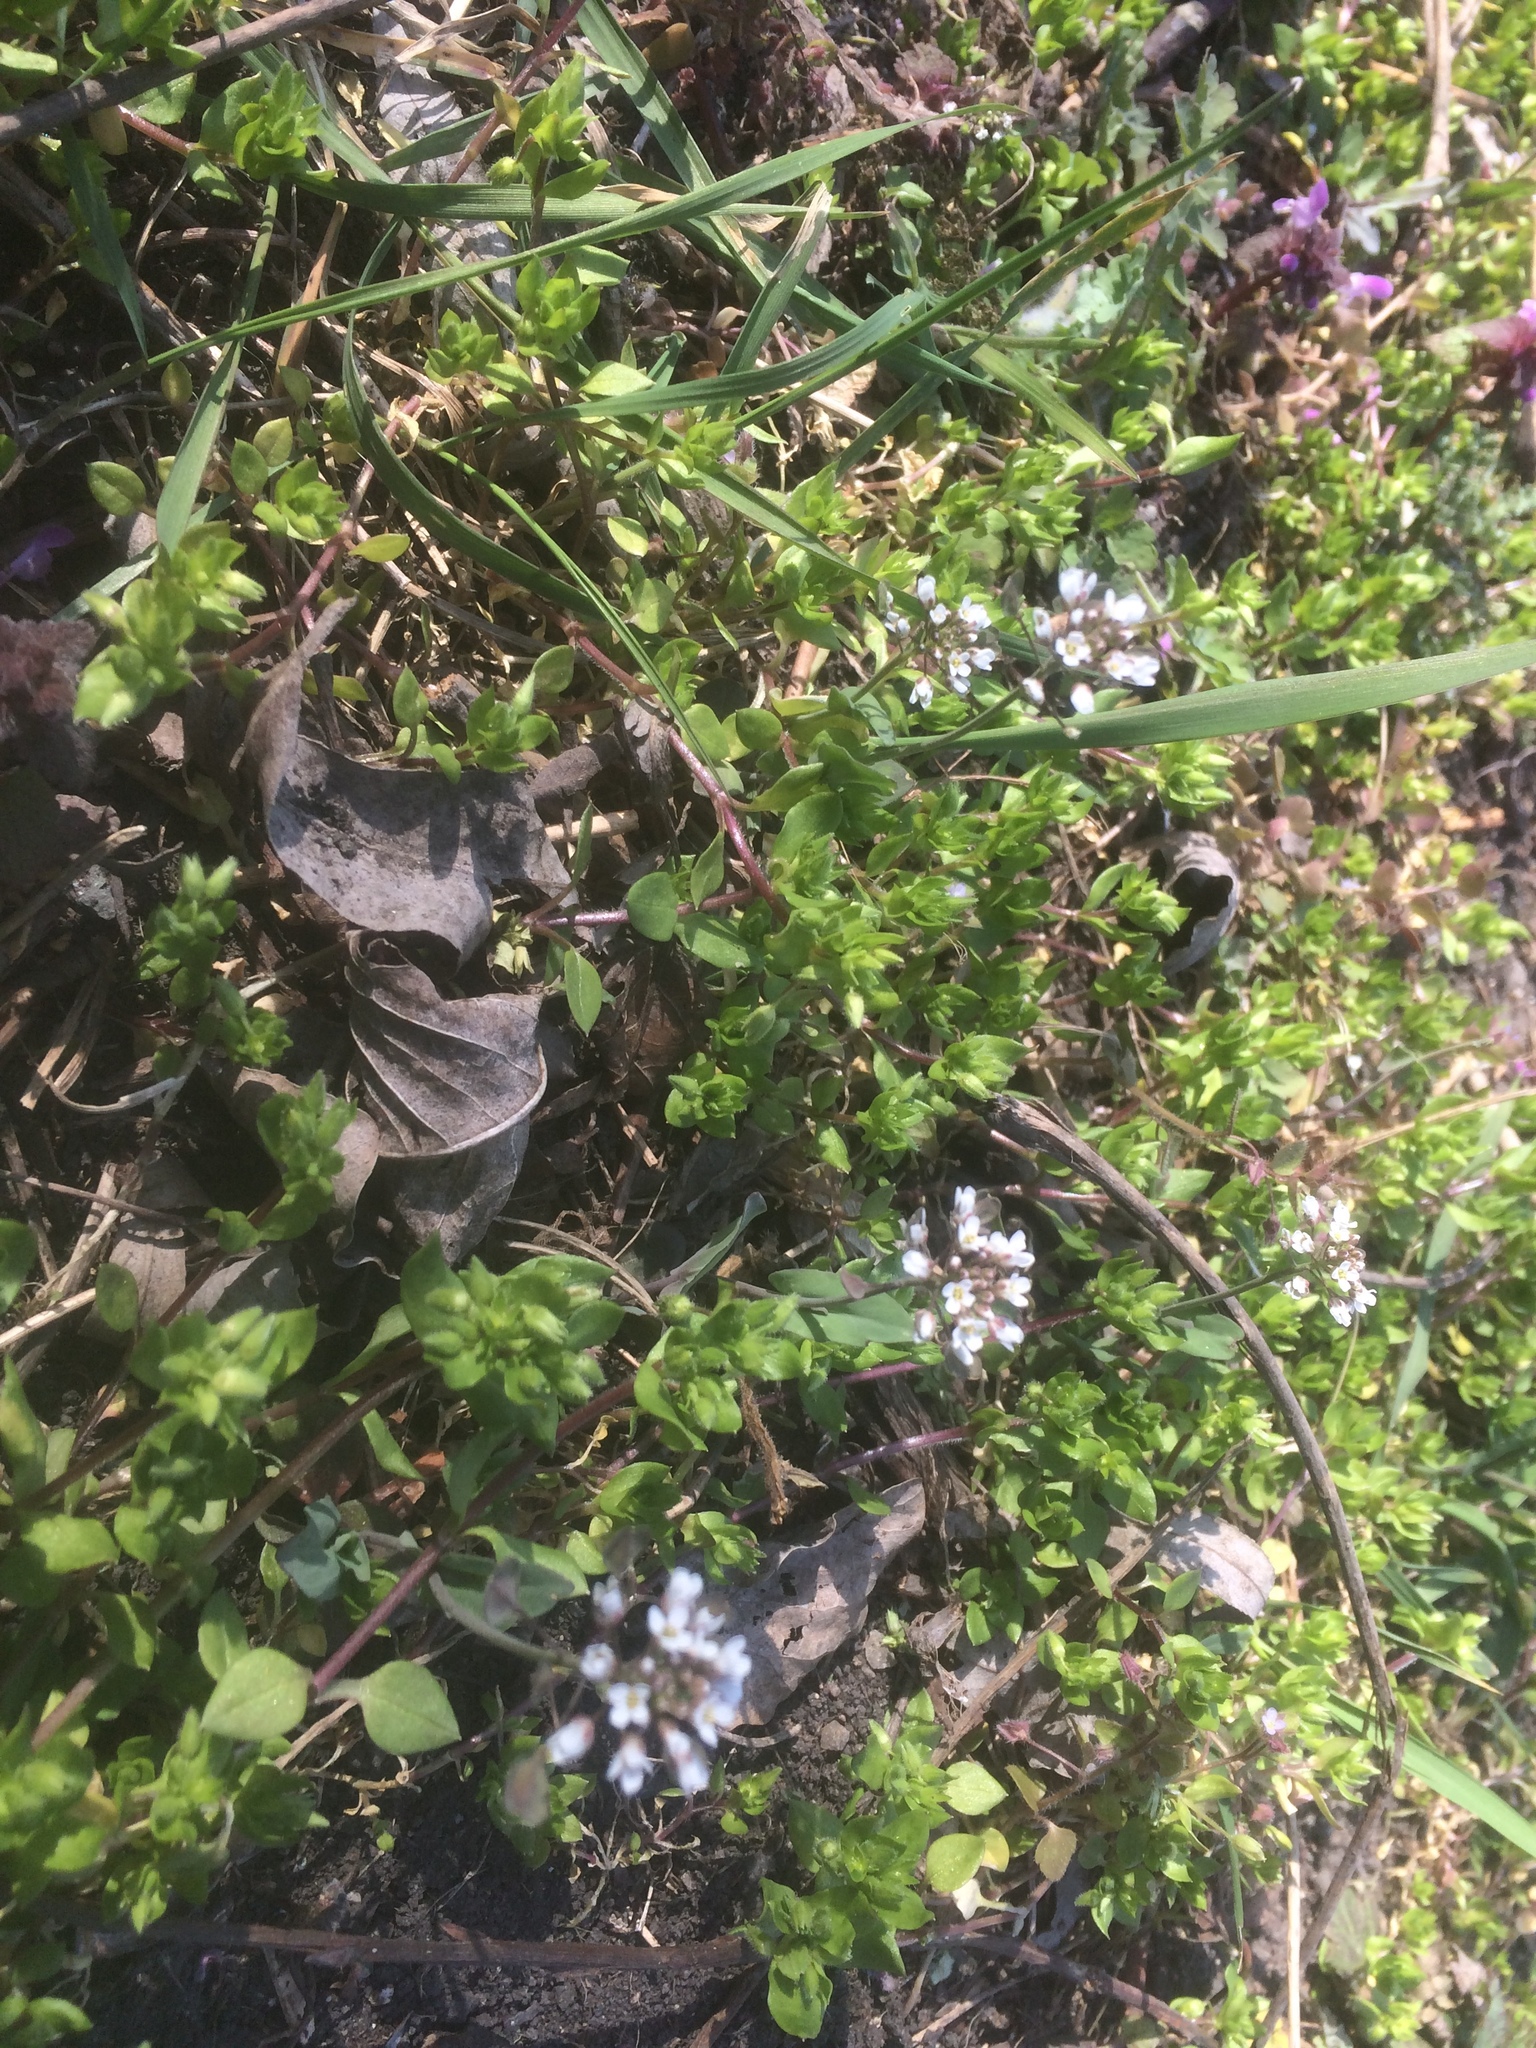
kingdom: Plantae
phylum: Tracheophyta
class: Magnoliopsida
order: Brassicales
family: Brassicaceae
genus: Noccaea
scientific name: Noccaea perfoliata
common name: Perfoliate pennycress
